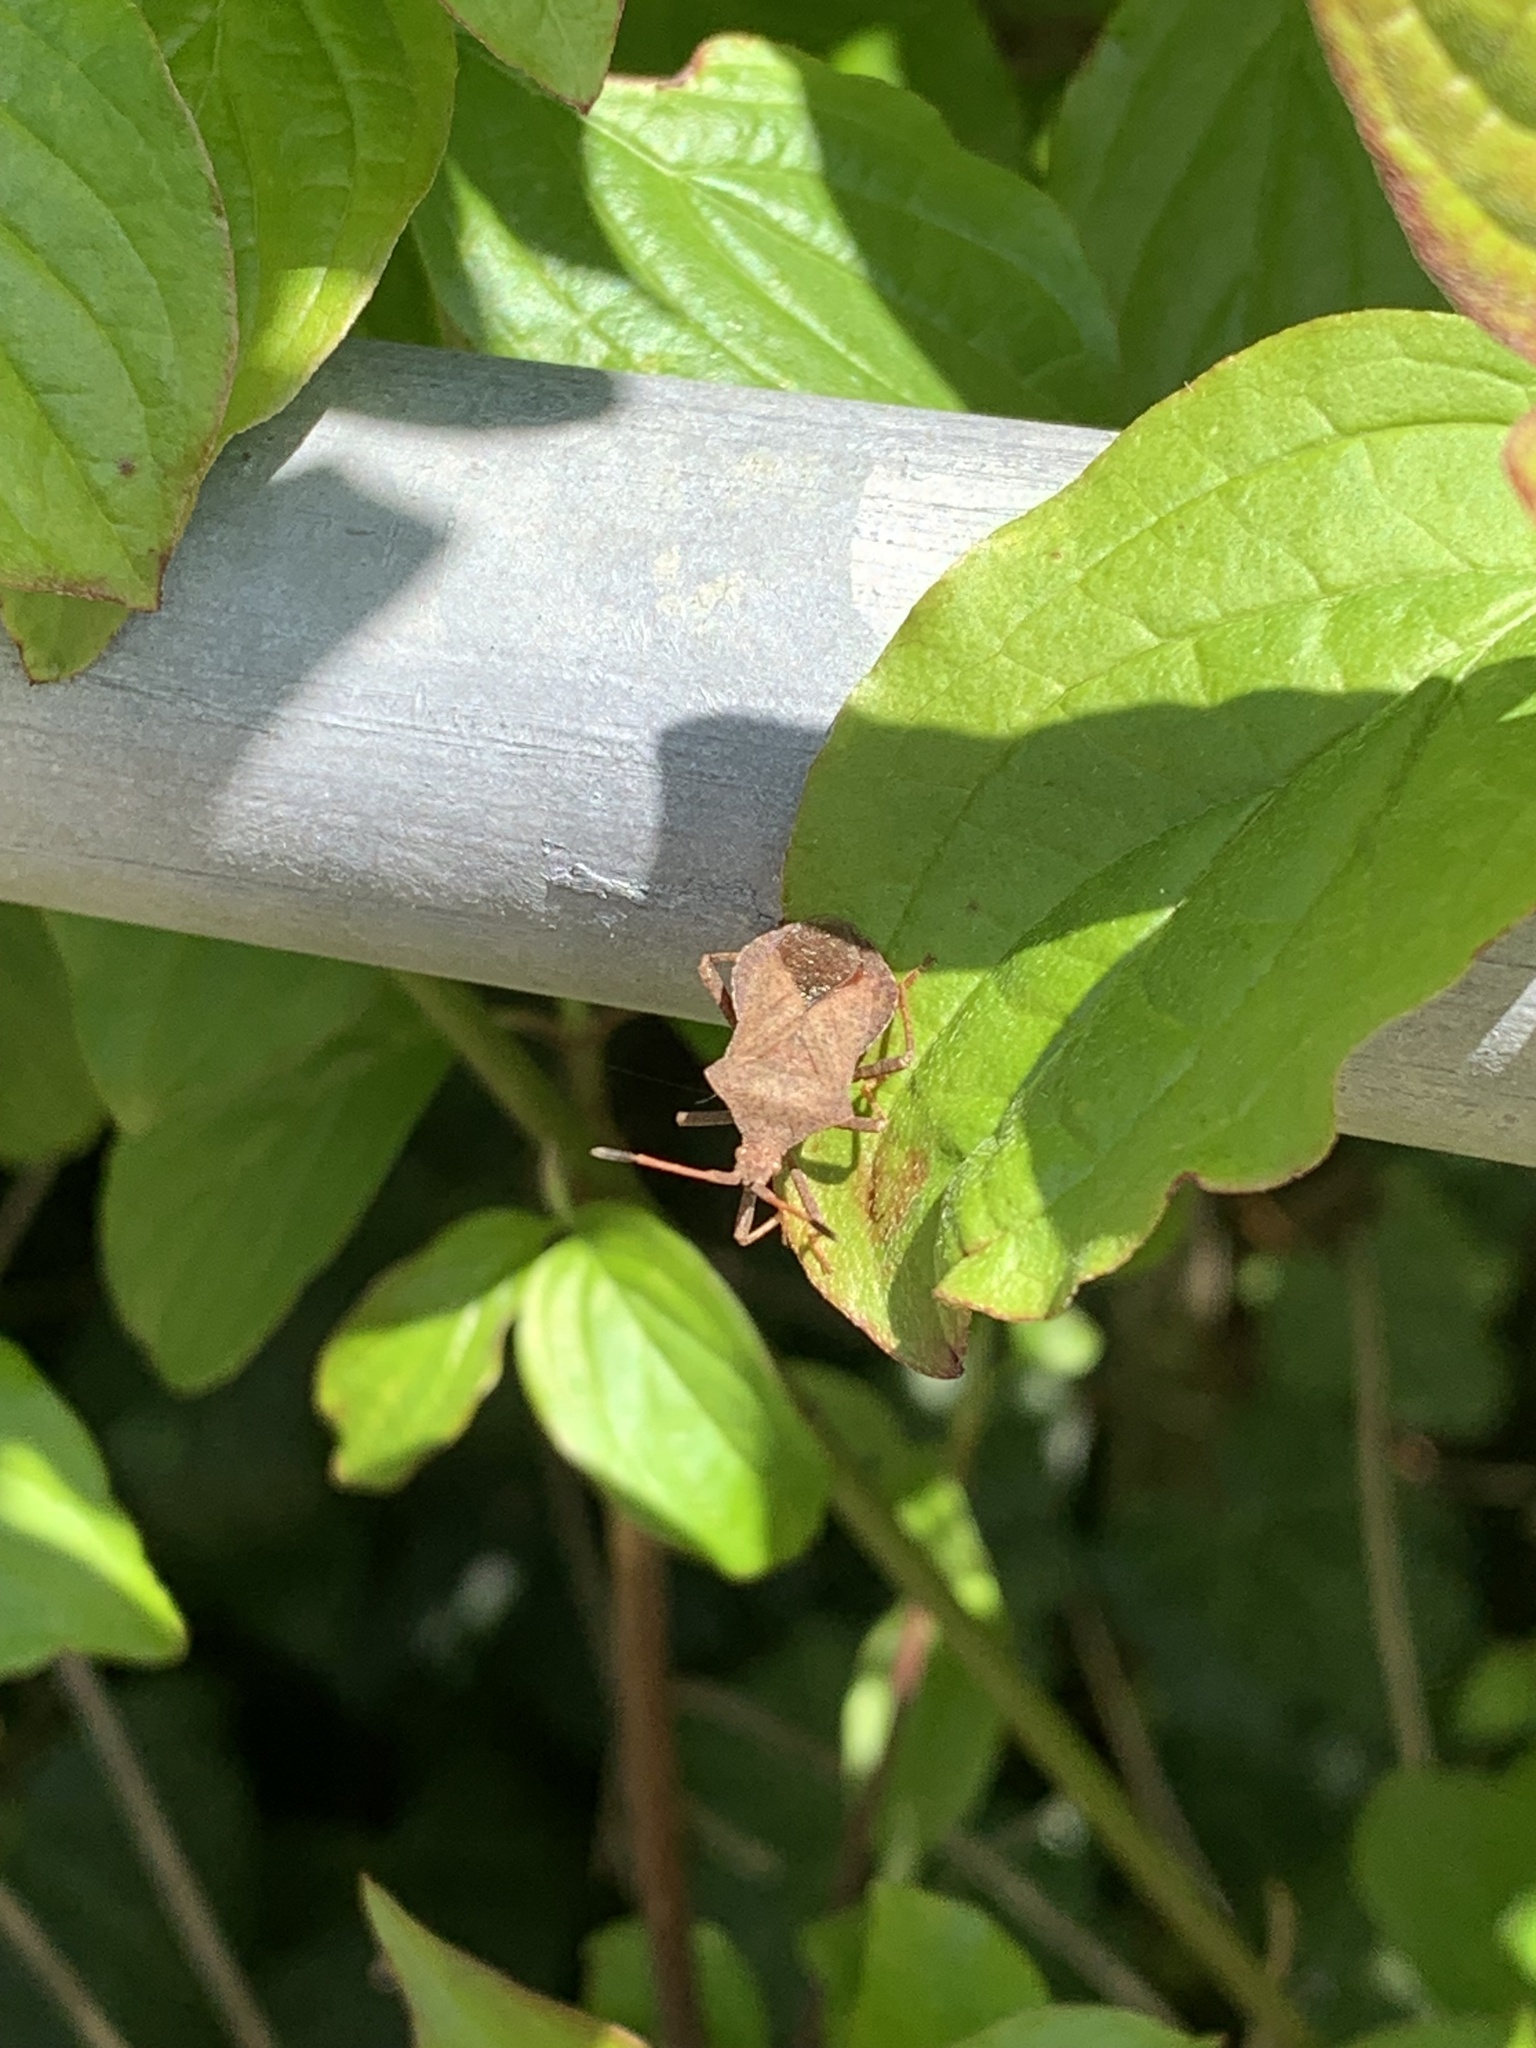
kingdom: Animalia
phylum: Arthropoda
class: Insecta
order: Hemiptera
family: Coreidae
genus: Coreus
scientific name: Coreus marginatus
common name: Dock bug
